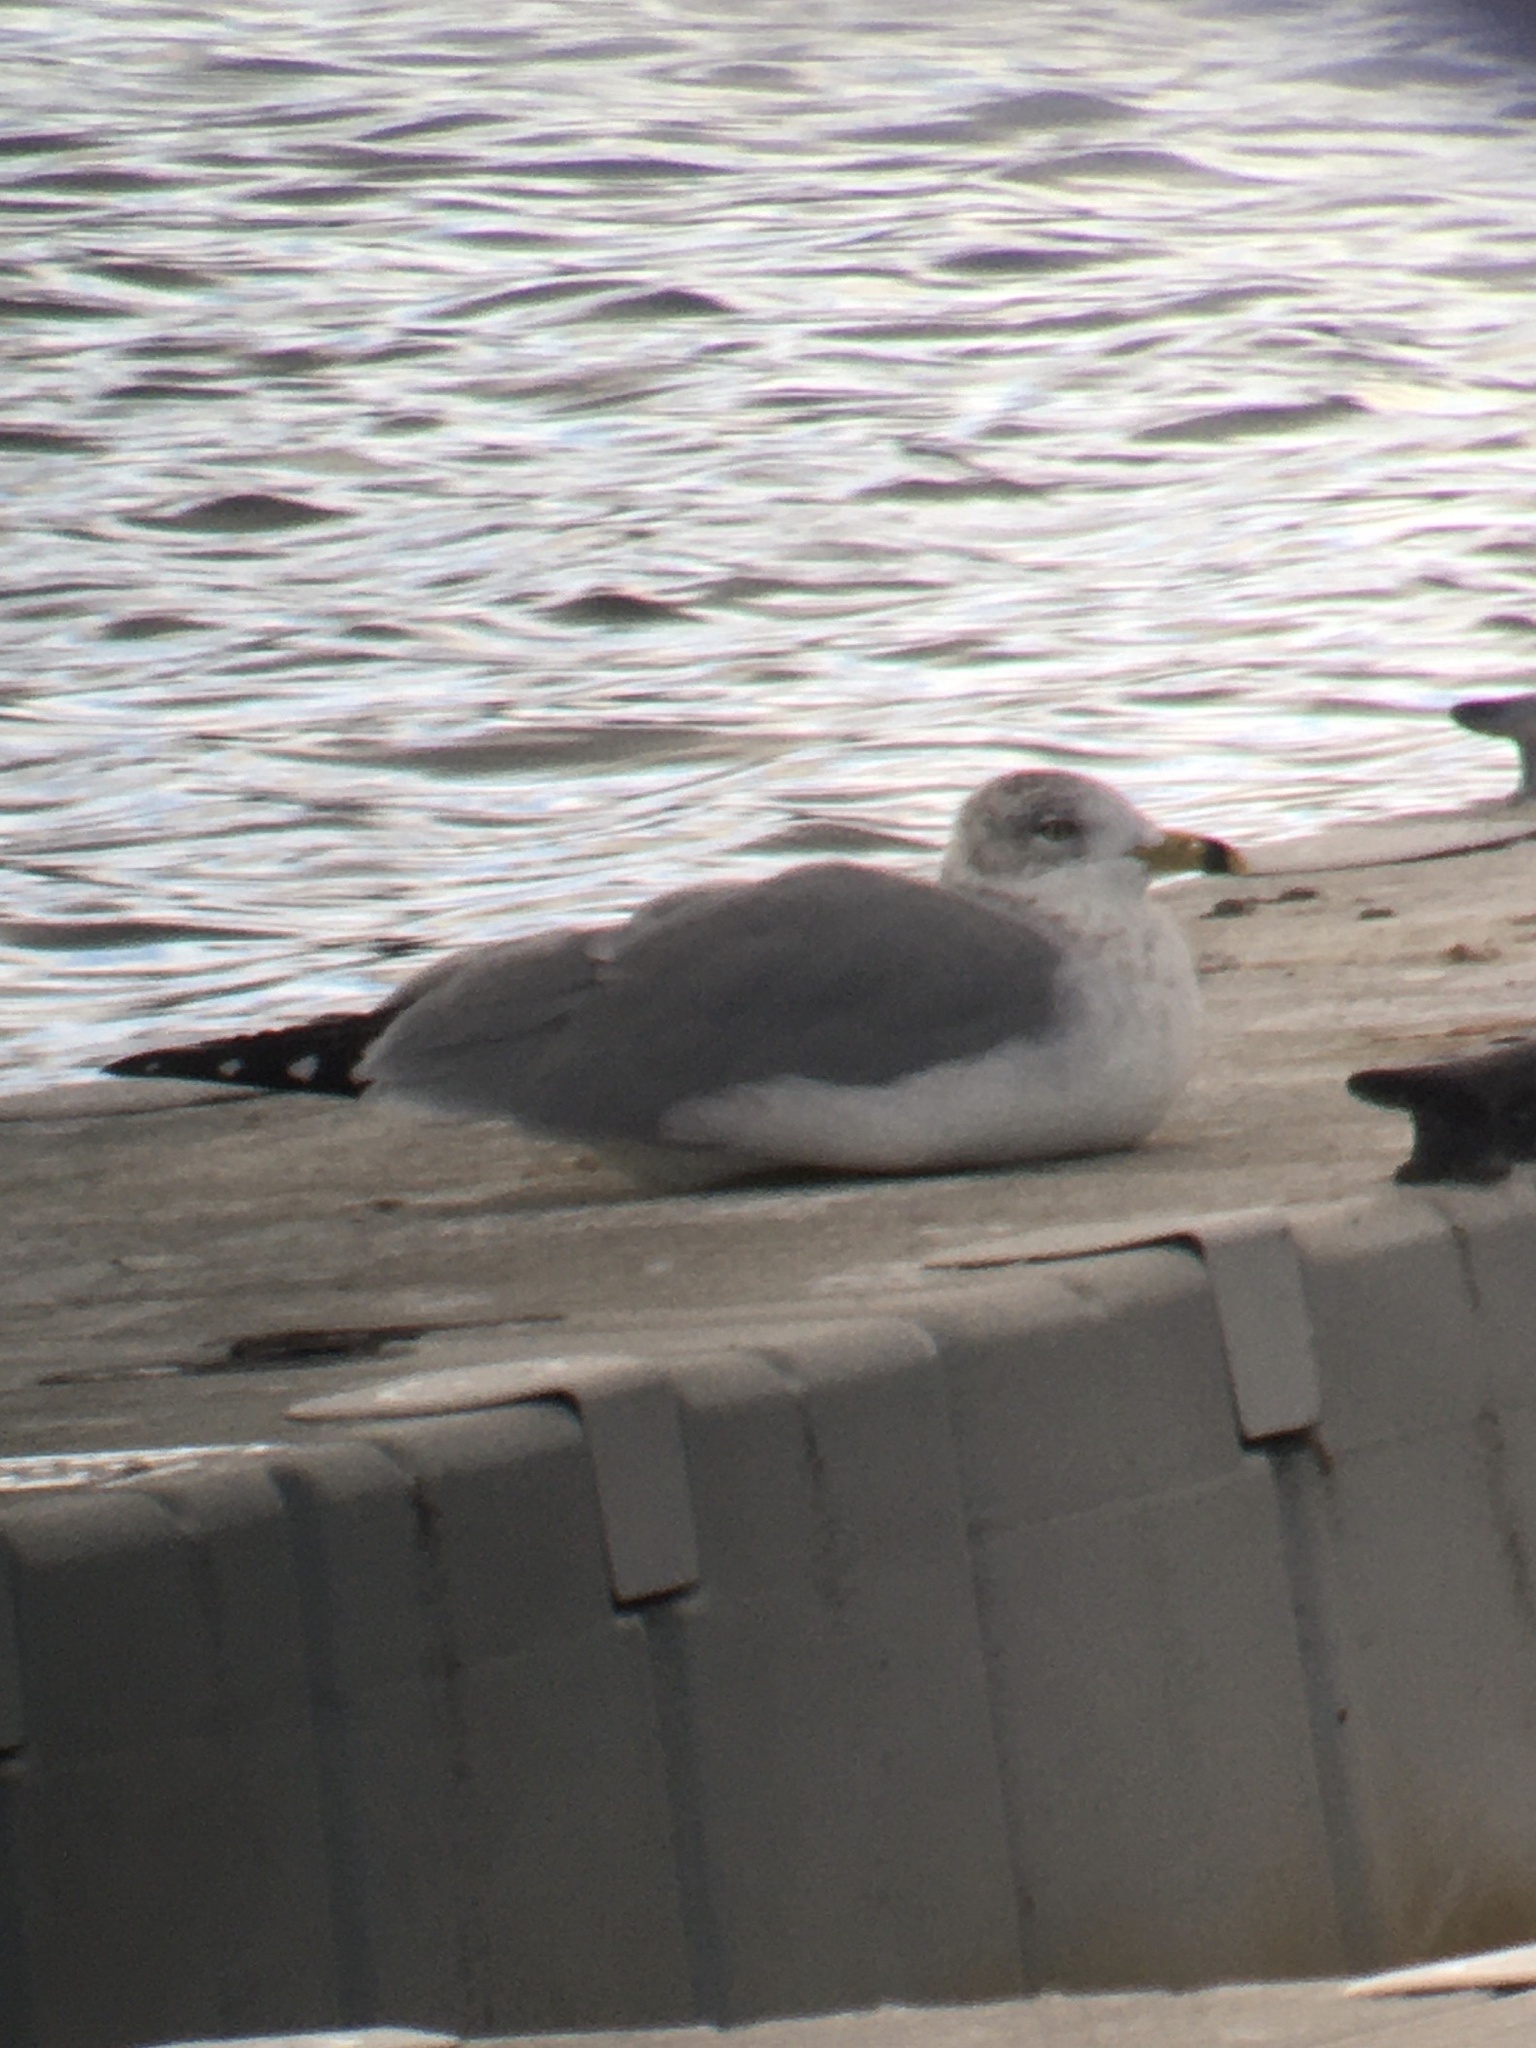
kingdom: Animalia
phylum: Chordata
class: Aves
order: Charadriiformes
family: Laridae
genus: Larus
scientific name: Larus delawarensis
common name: Ring-billed gull
